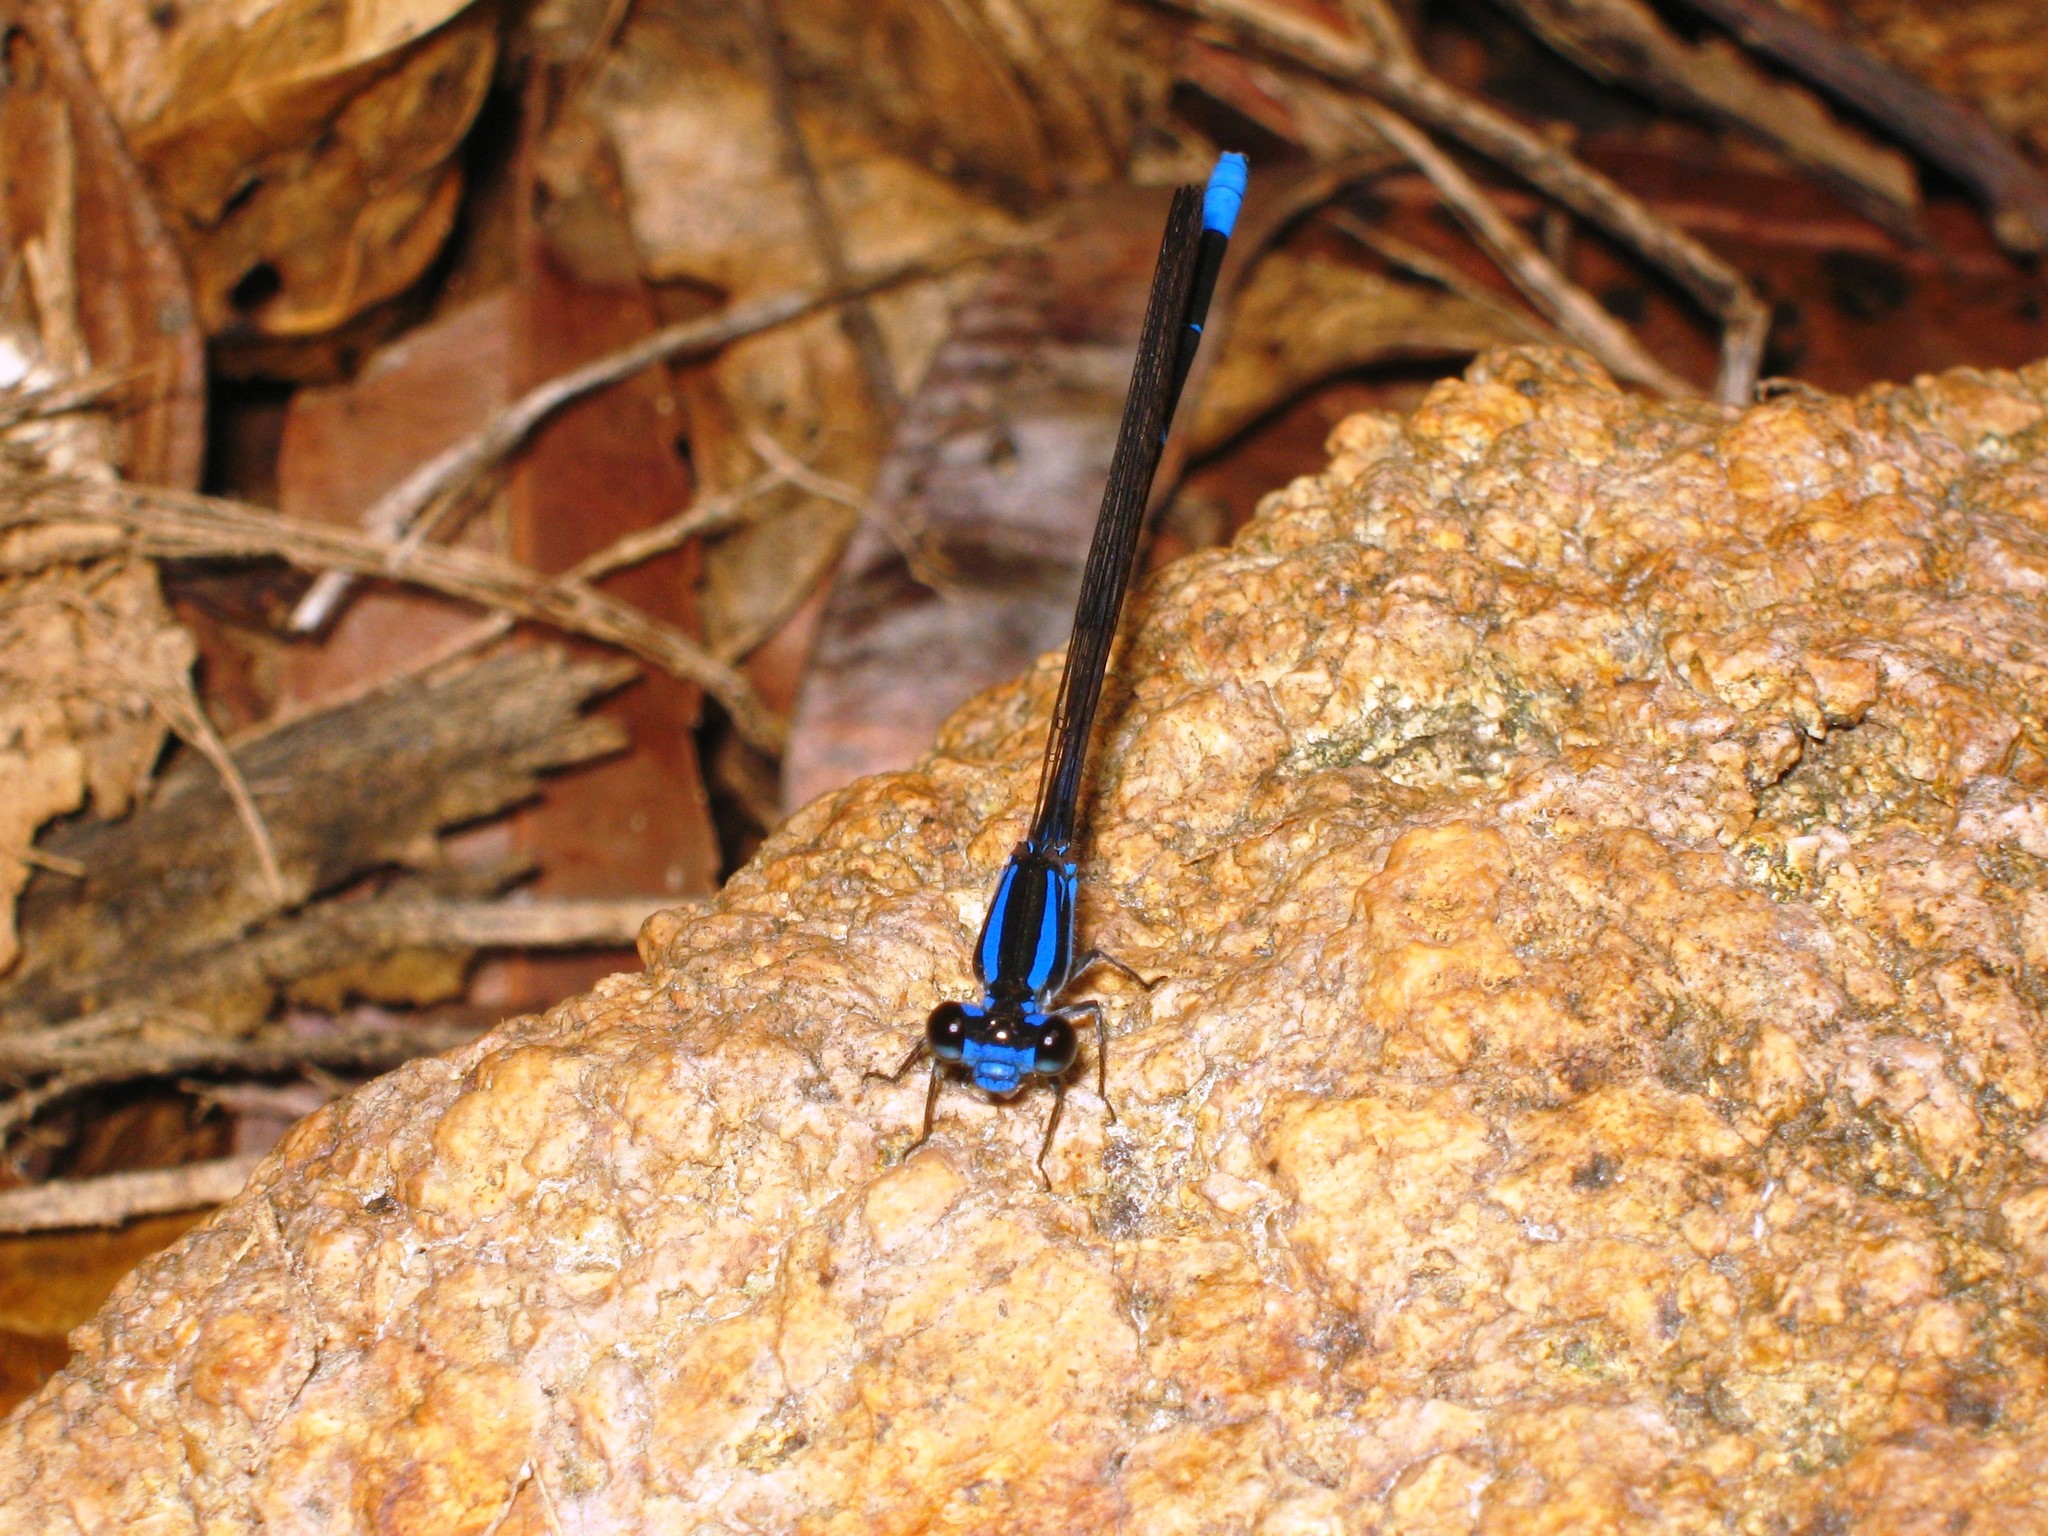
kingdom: Animalia
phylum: Arthropoda
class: Insecta
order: Odonata
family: Coenagrionidae
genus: Argia
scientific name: Argia oculata
